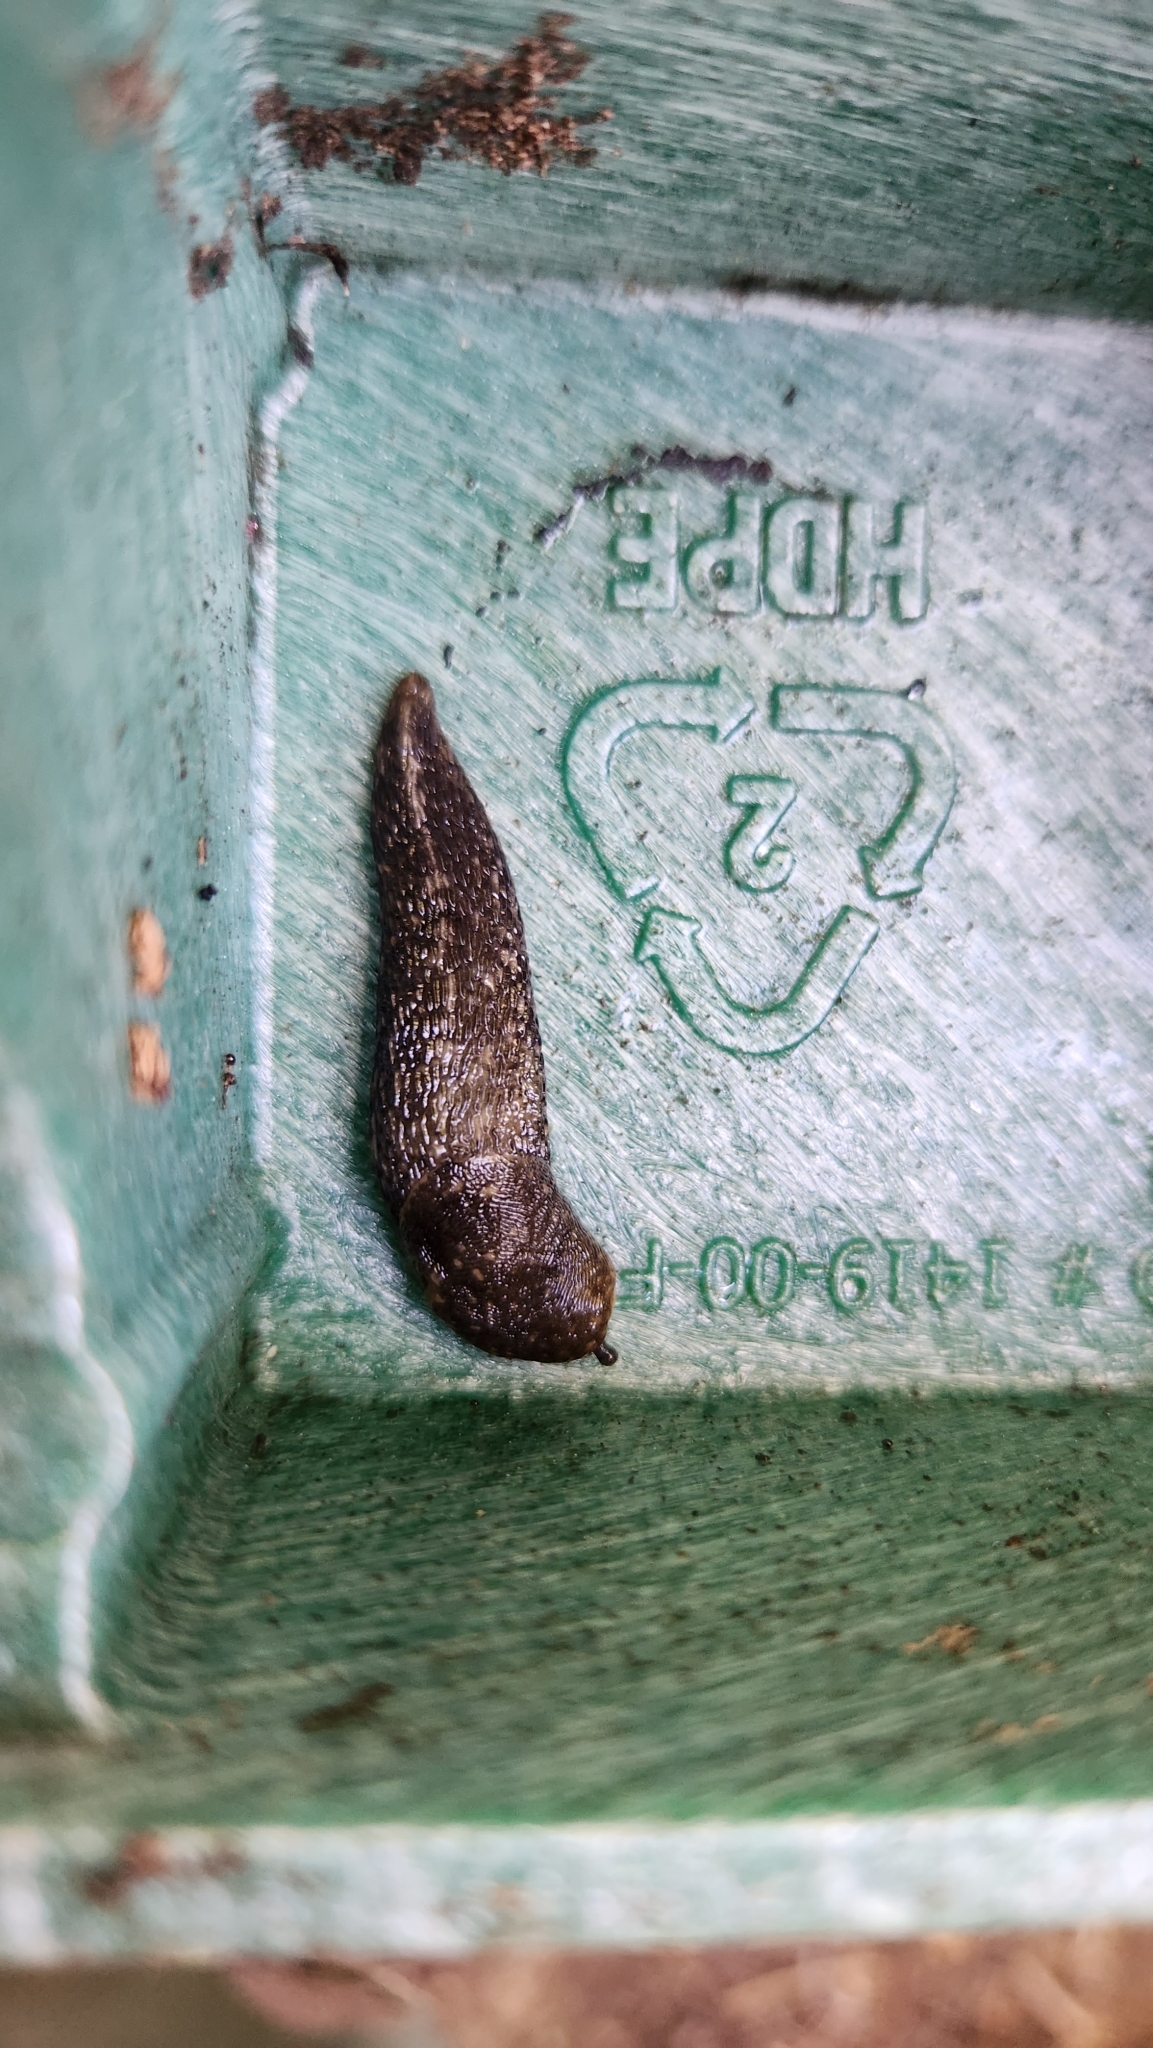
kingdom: Animalia
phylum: Mollusca
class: Gastropoda
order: Stylommatophora
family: Limacidae
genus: Limacus
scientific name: Limacus flavus
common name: Yellow gardenslug
